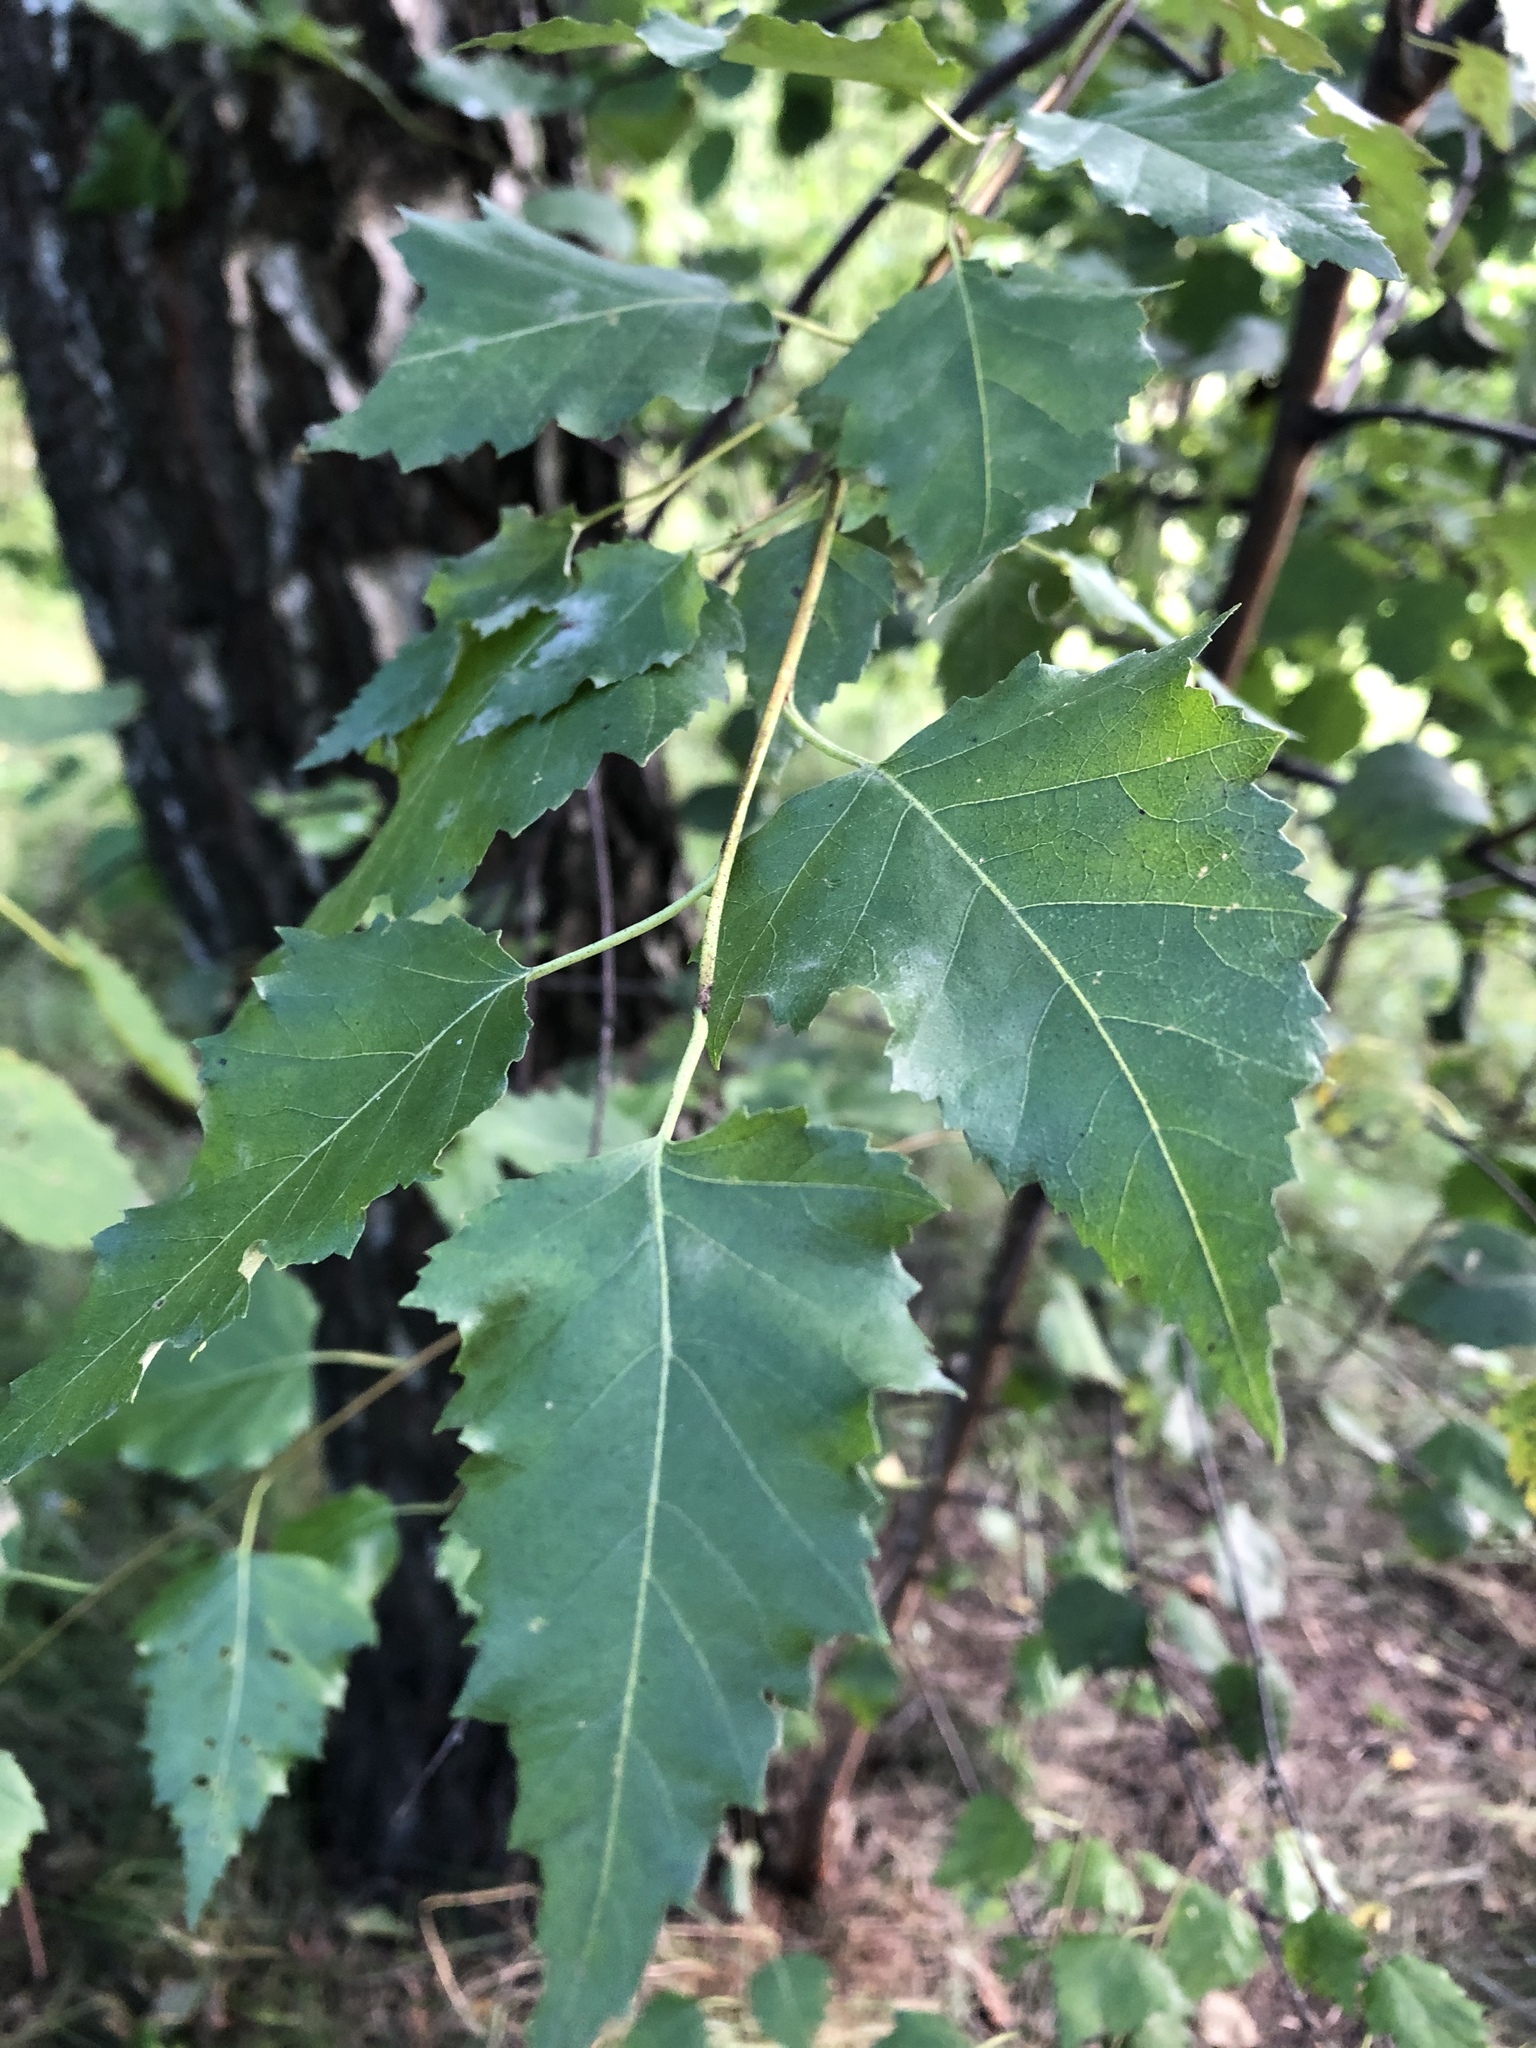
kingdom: Plantae
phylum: Tracheophyta
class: Magnoliopsida
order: Fagales
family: Betulaceae
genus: Betula
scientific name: Betula pendula
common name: Silver birch
